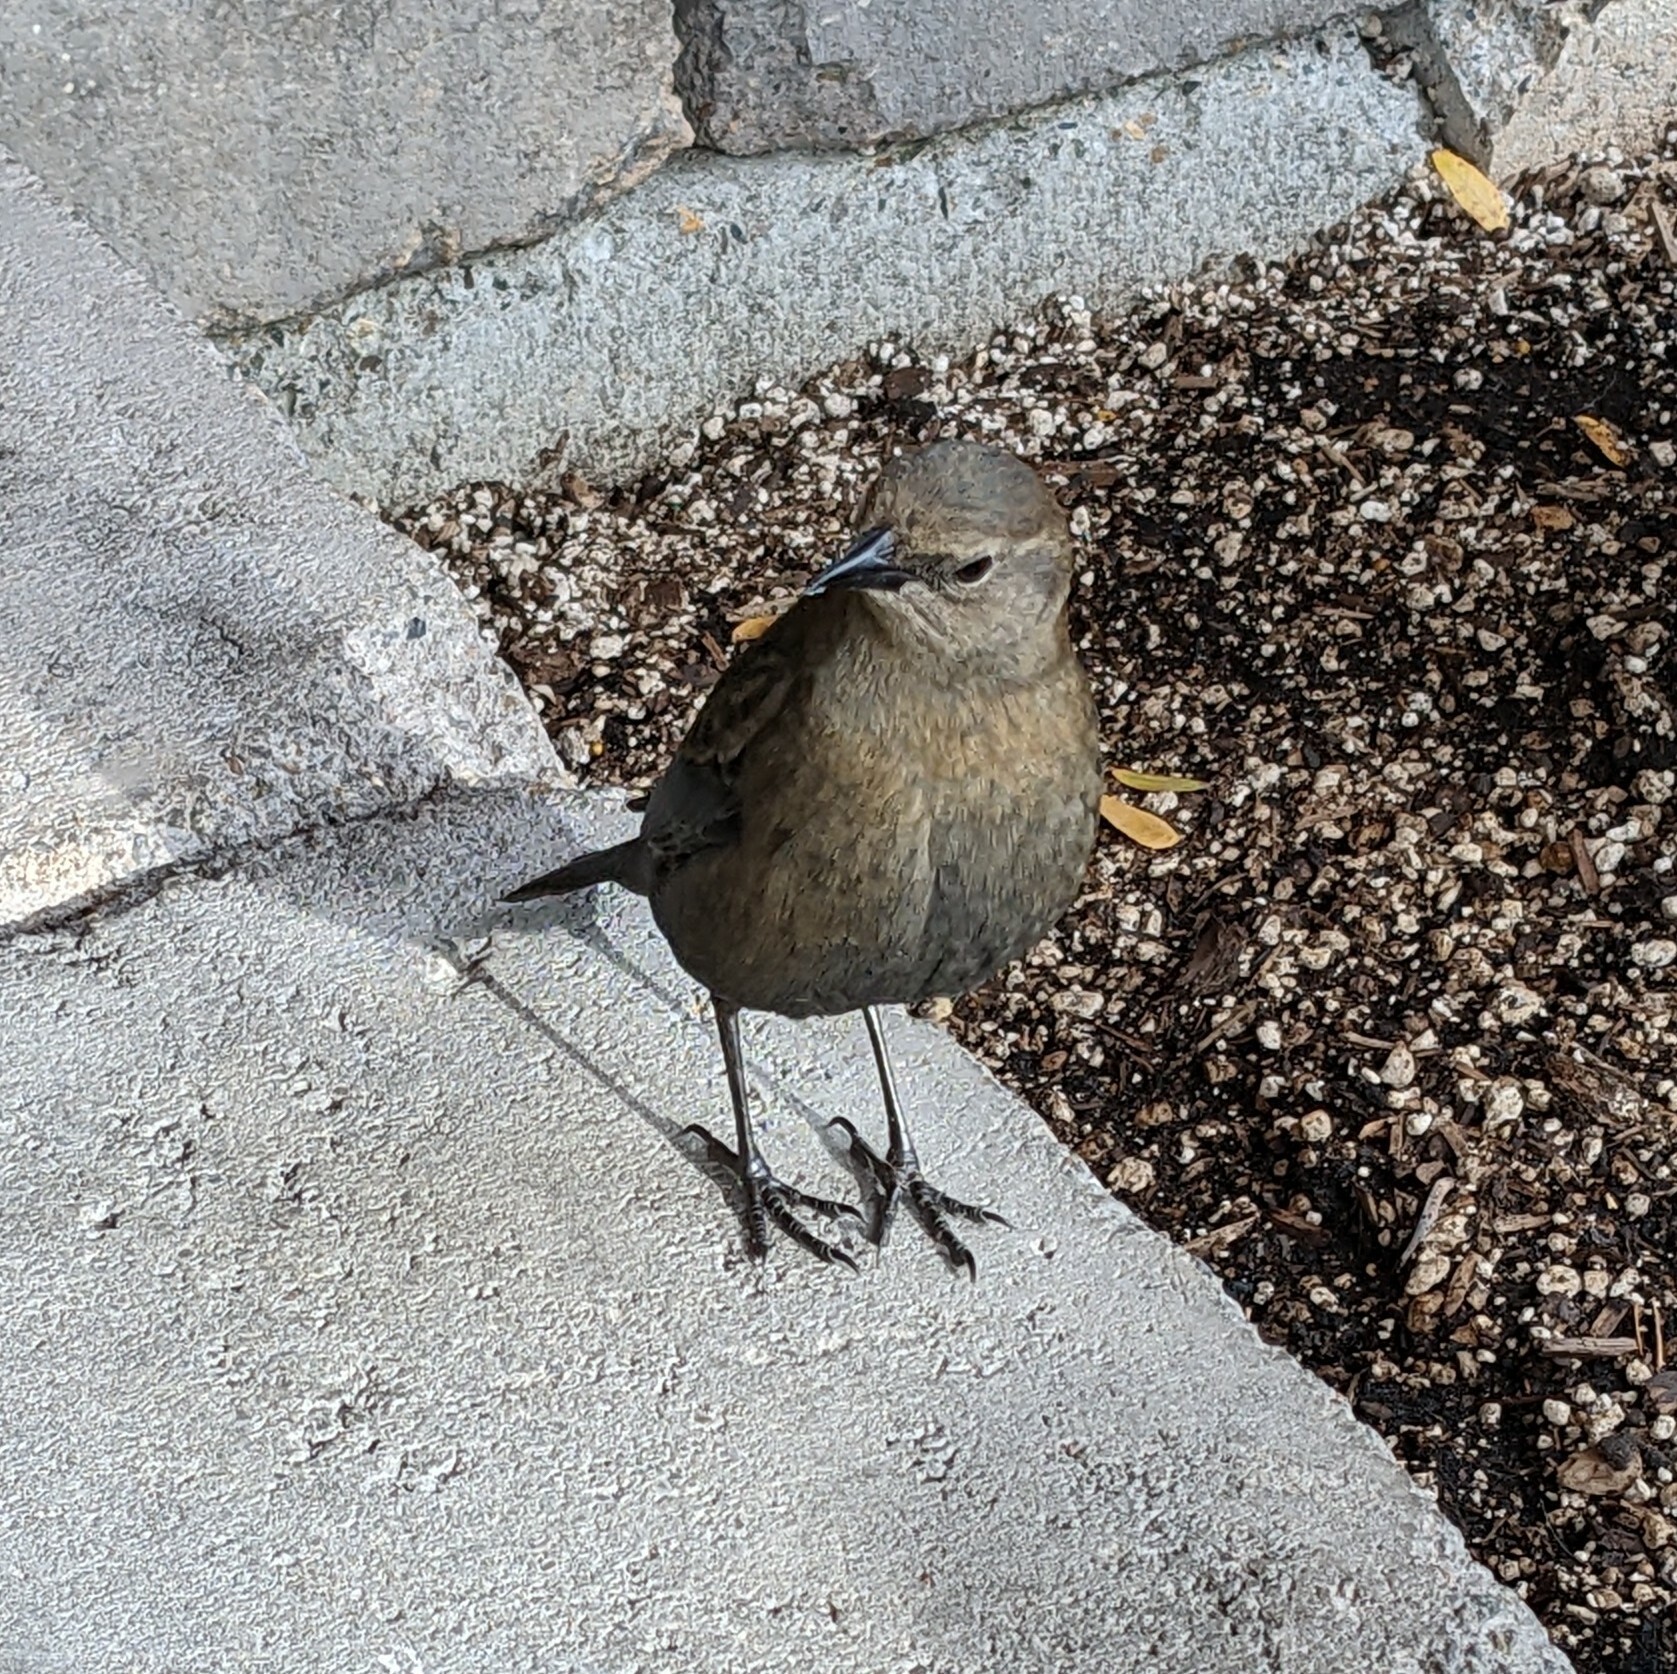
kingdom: Animalia
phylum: Chordata
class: Aves
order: Passeriformes
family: Icteridae
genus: Euphagus
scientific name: Euphagus cyanocephalus
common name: Brewer's blackbird
